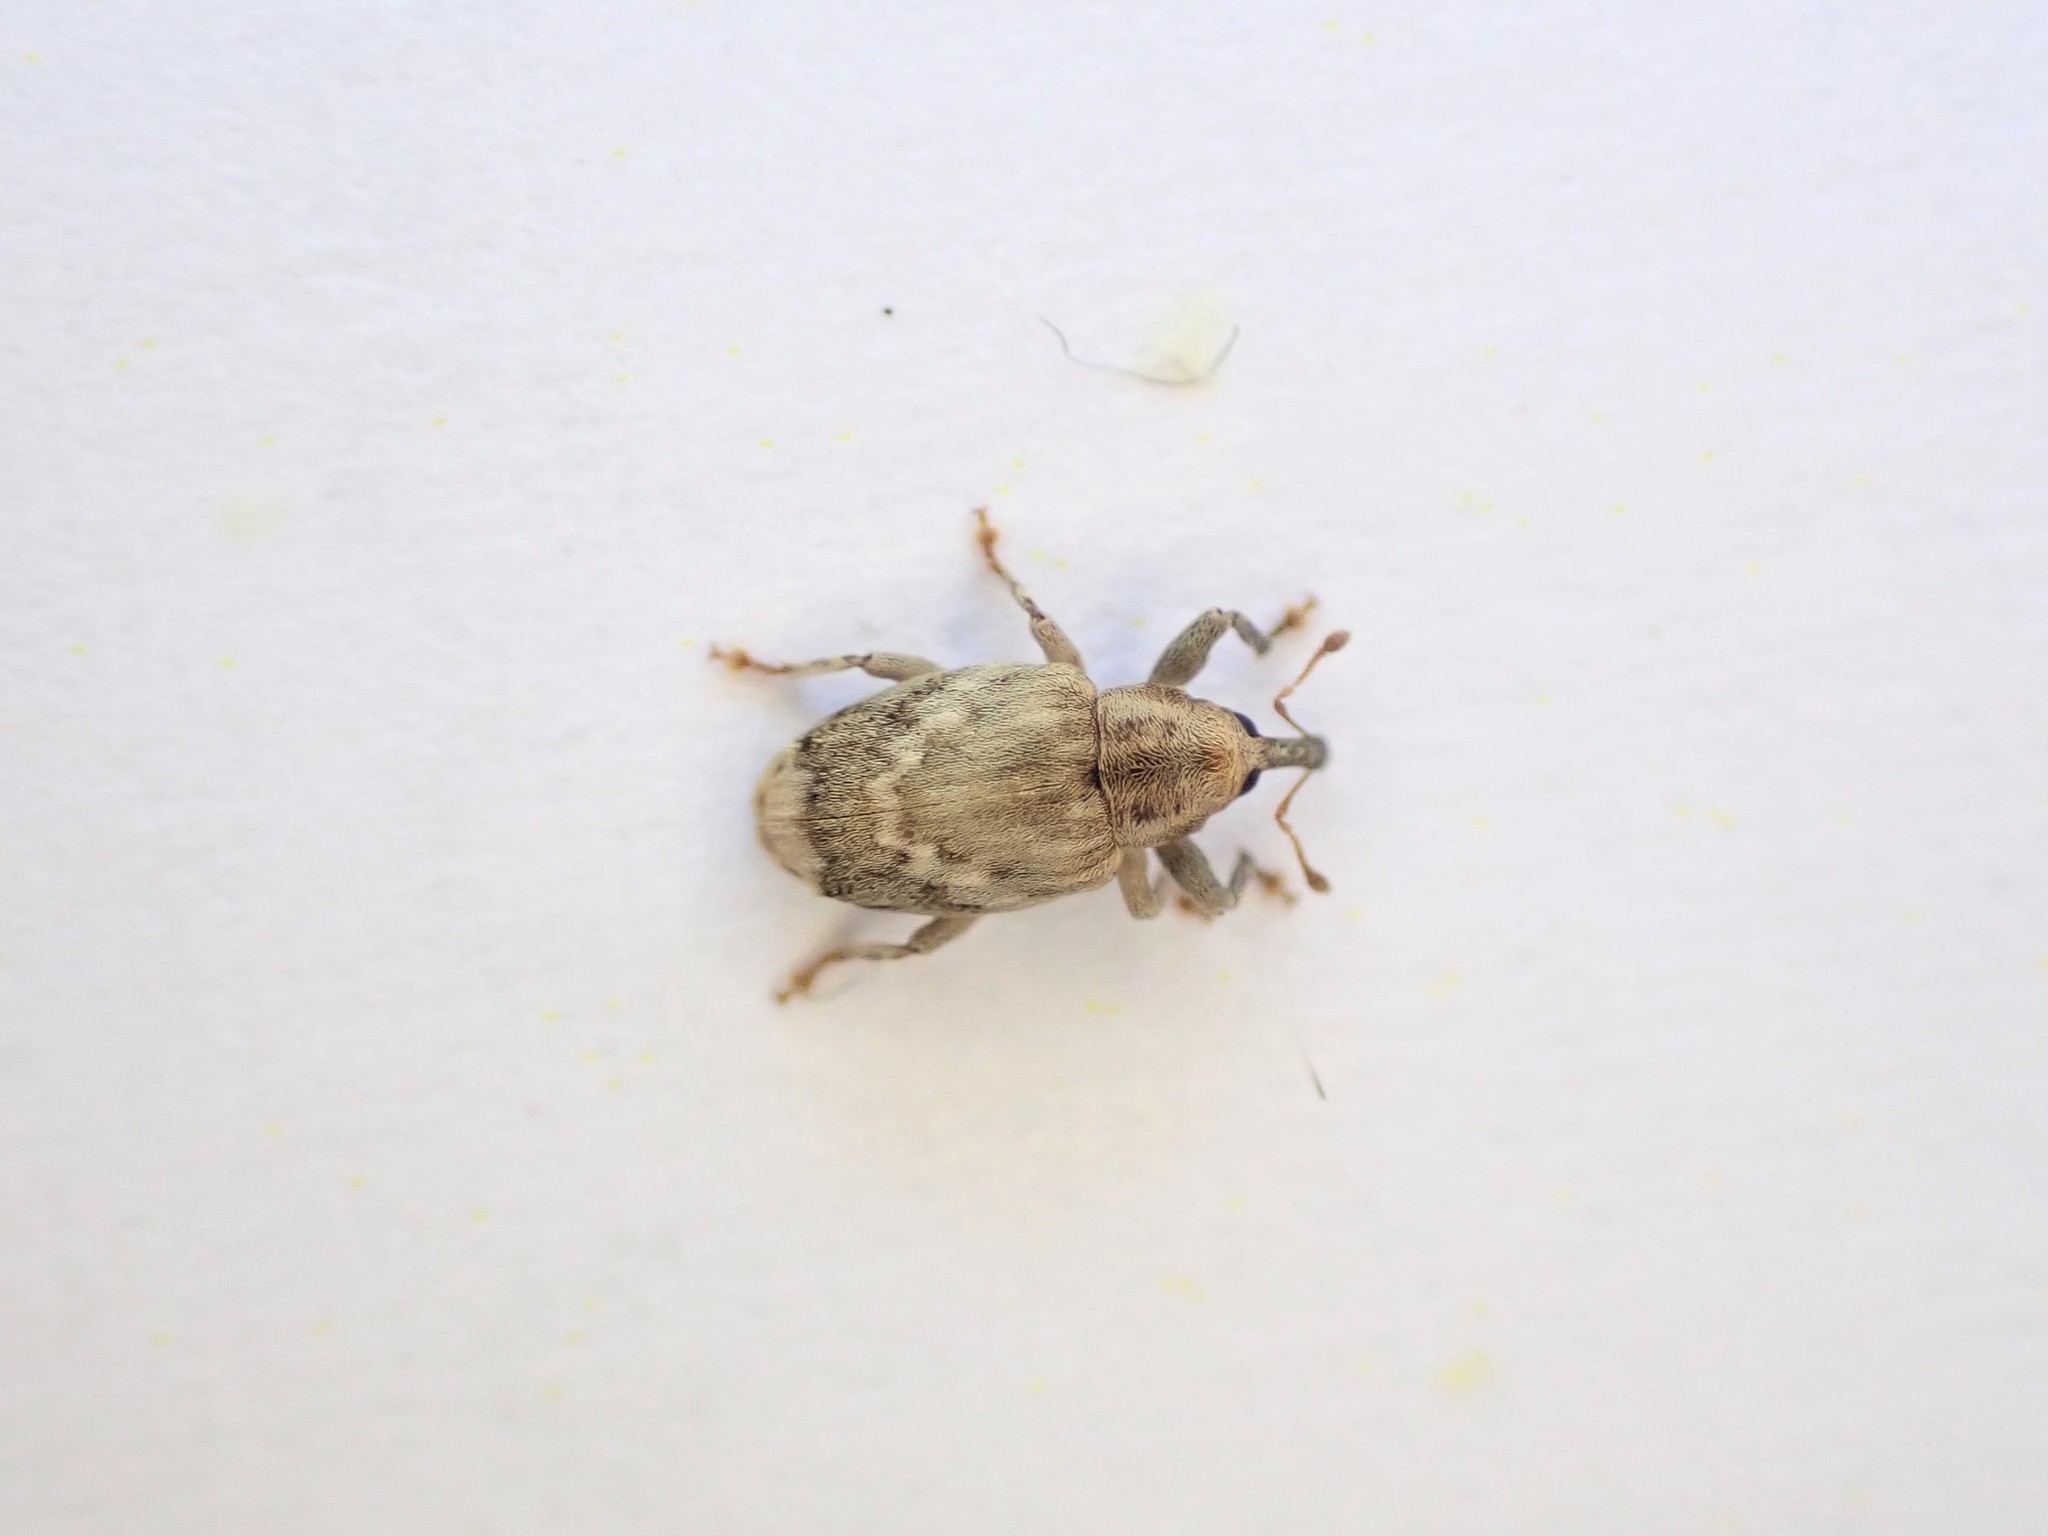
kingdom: Animalia
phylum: Arthropoda
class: Insecta
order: Coleoptera
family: Curculionidae
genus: Aneuma
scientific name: Aneuma compta
